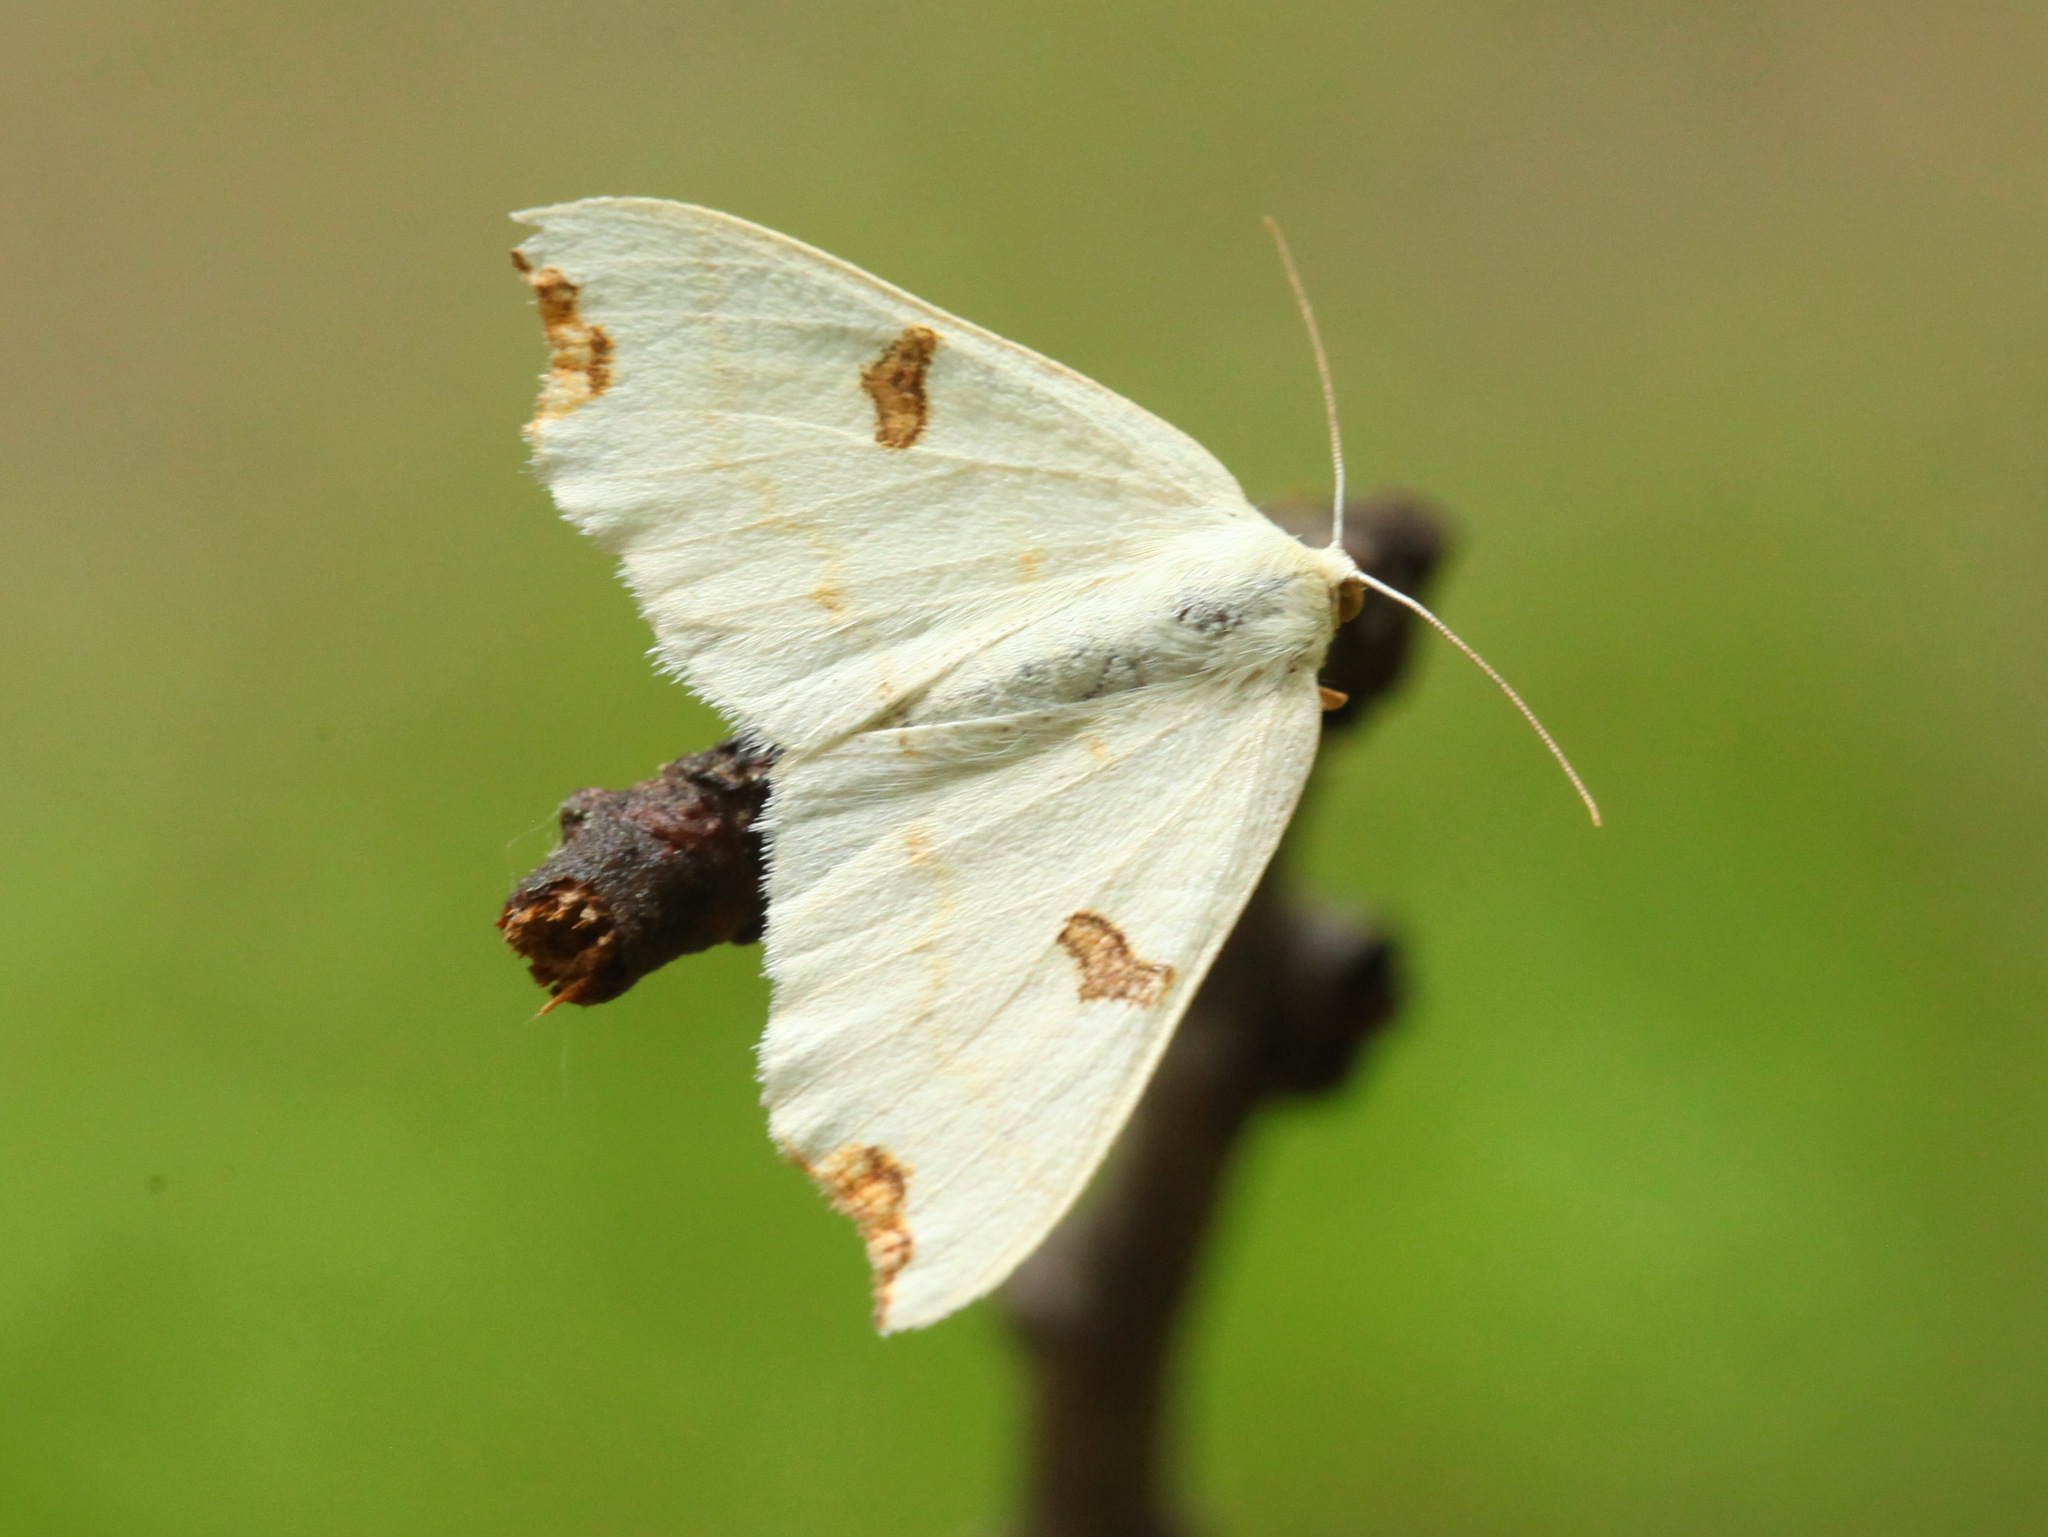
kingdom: Animalia
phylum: Arthropoda
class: Insecta
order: Lepidoptera
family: Geometridae
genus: Eilicrinia
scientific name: Eilicrinia wehrlii
